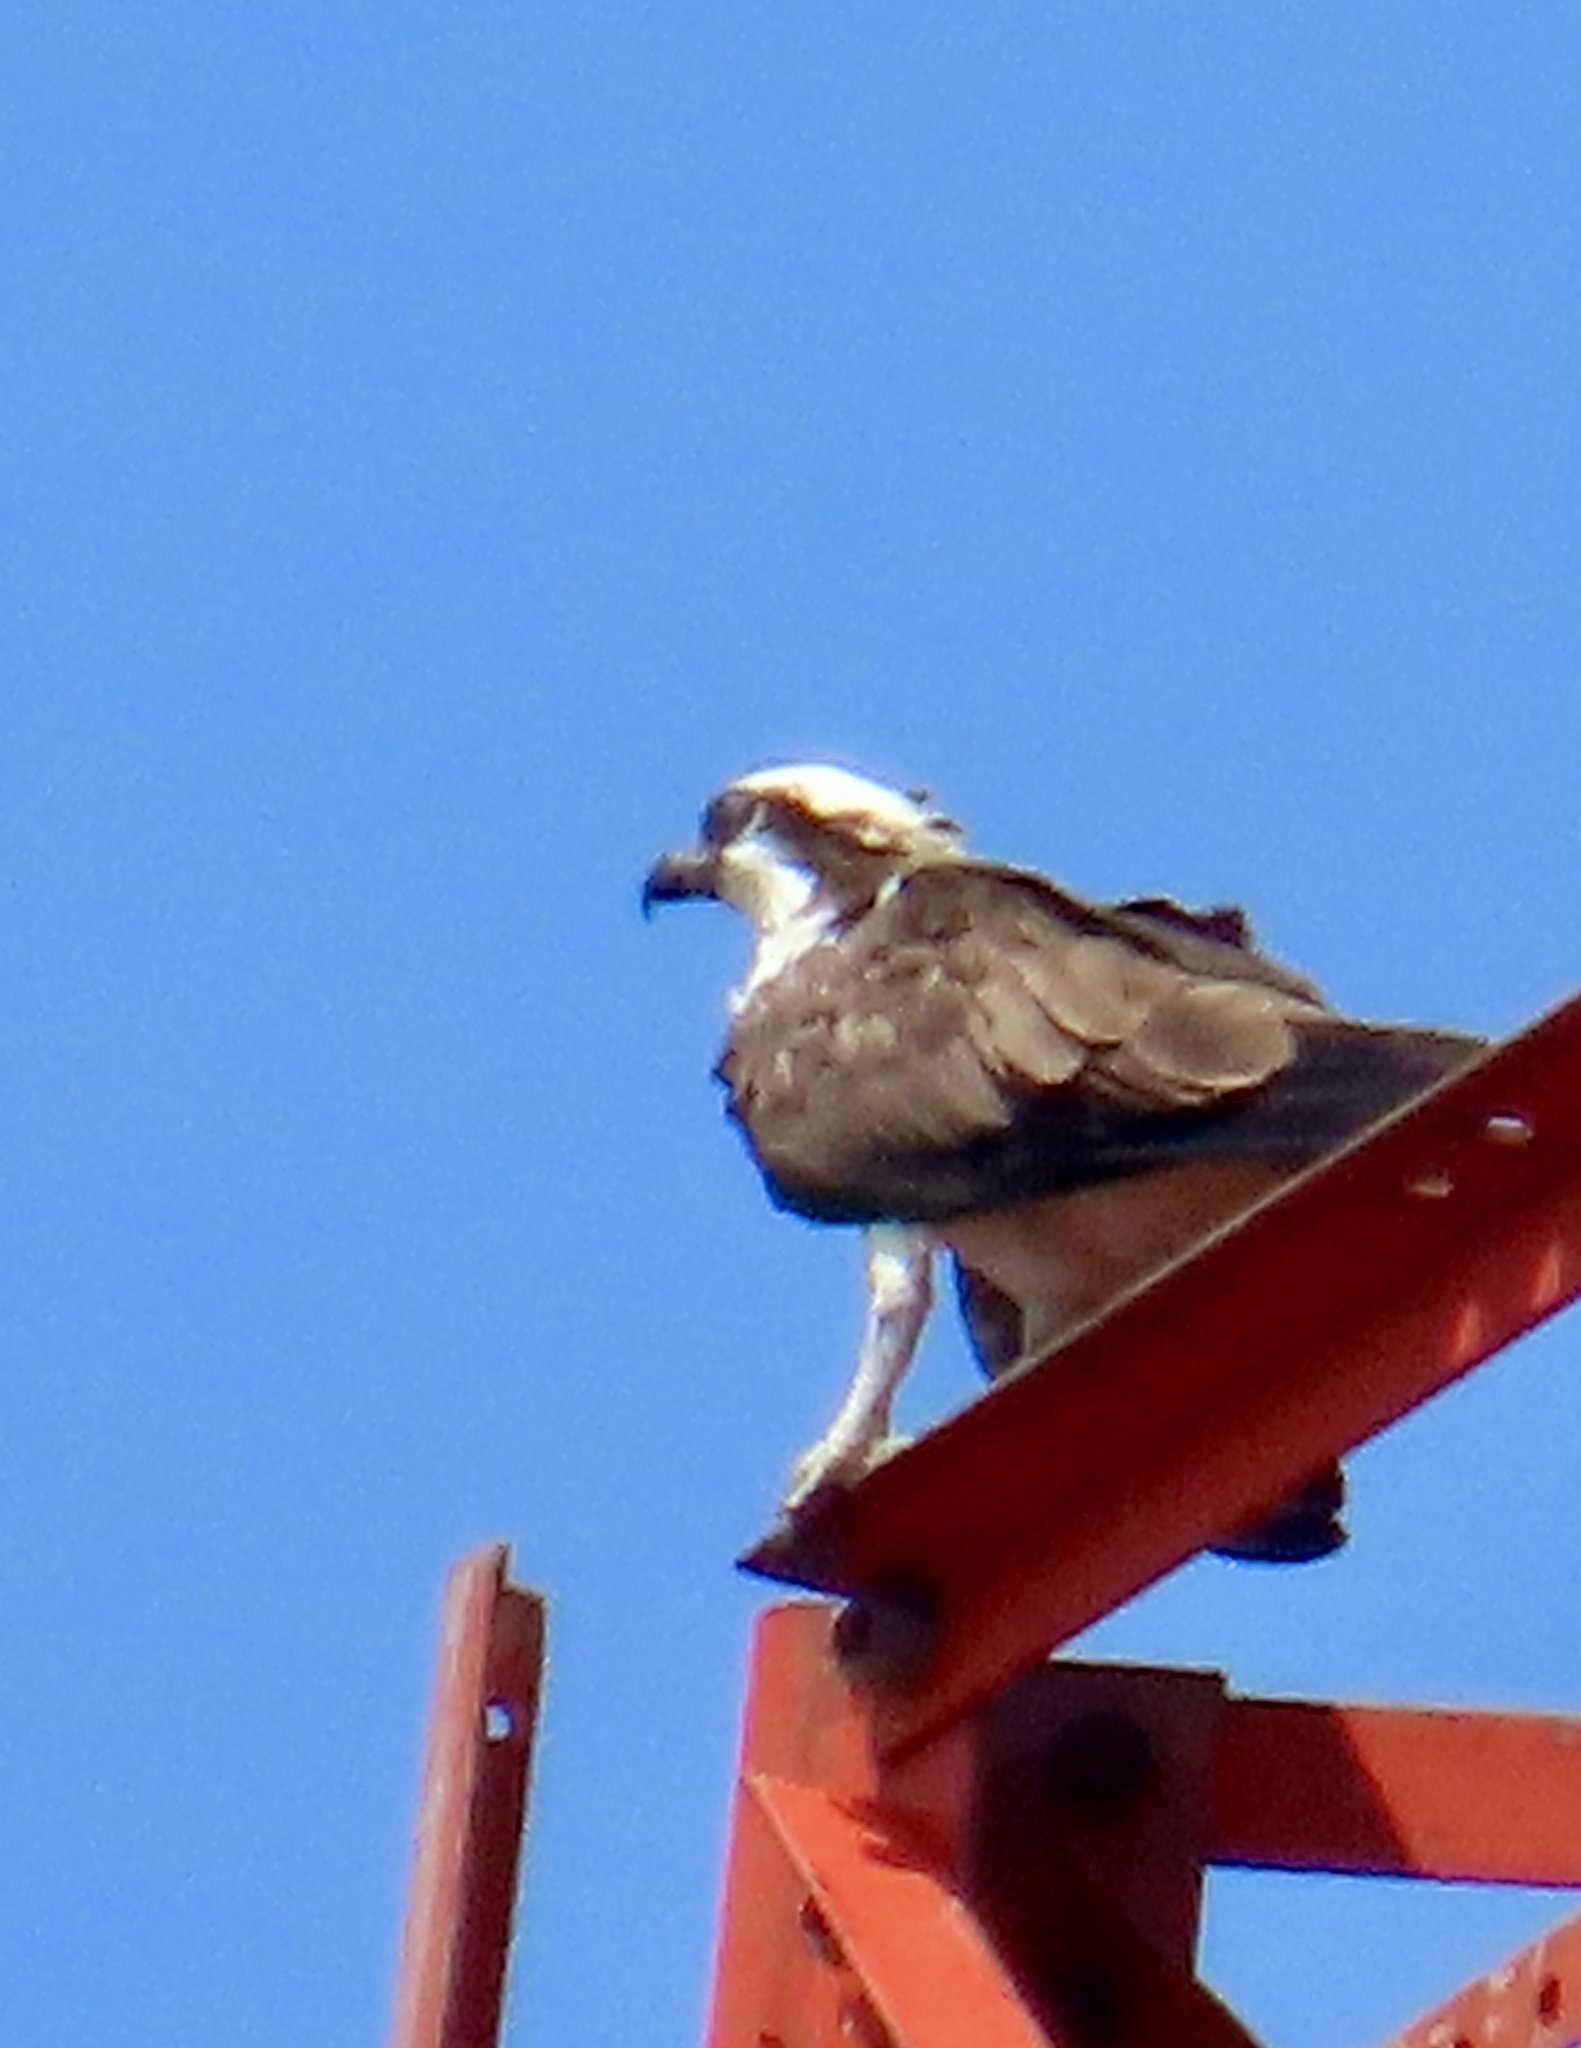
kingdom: Animalia
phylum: Chordata
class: Aves
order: Accipitriformes
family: Pandionidae
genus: Pandion
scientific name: Pandion haliaetus
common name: Osprey
